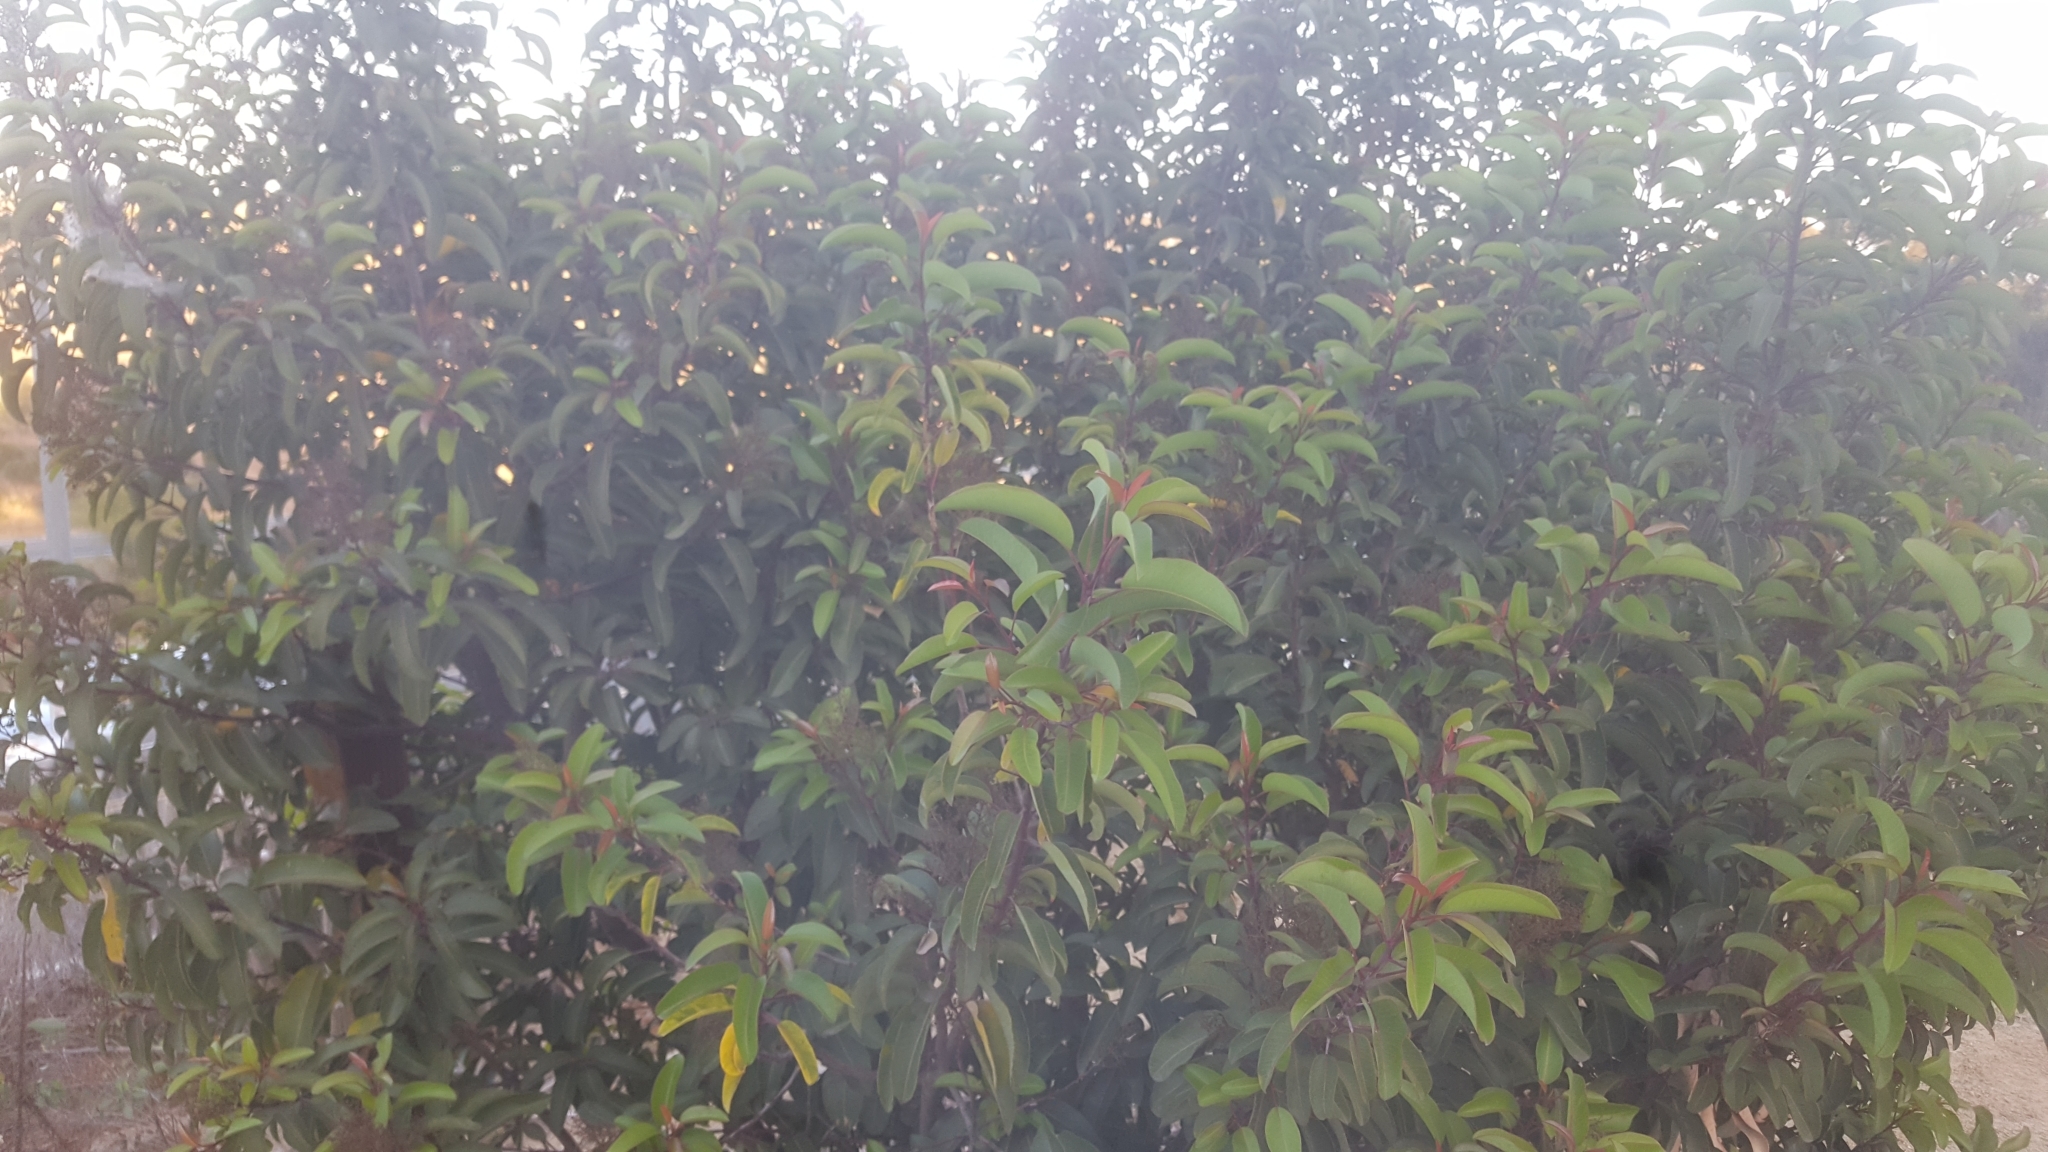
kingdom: Plantae
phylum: Tracheophyta
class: Magnoliopsida
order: Sapindales
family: Anacardiaceae
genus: Malosma
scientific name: Malosma laurina
